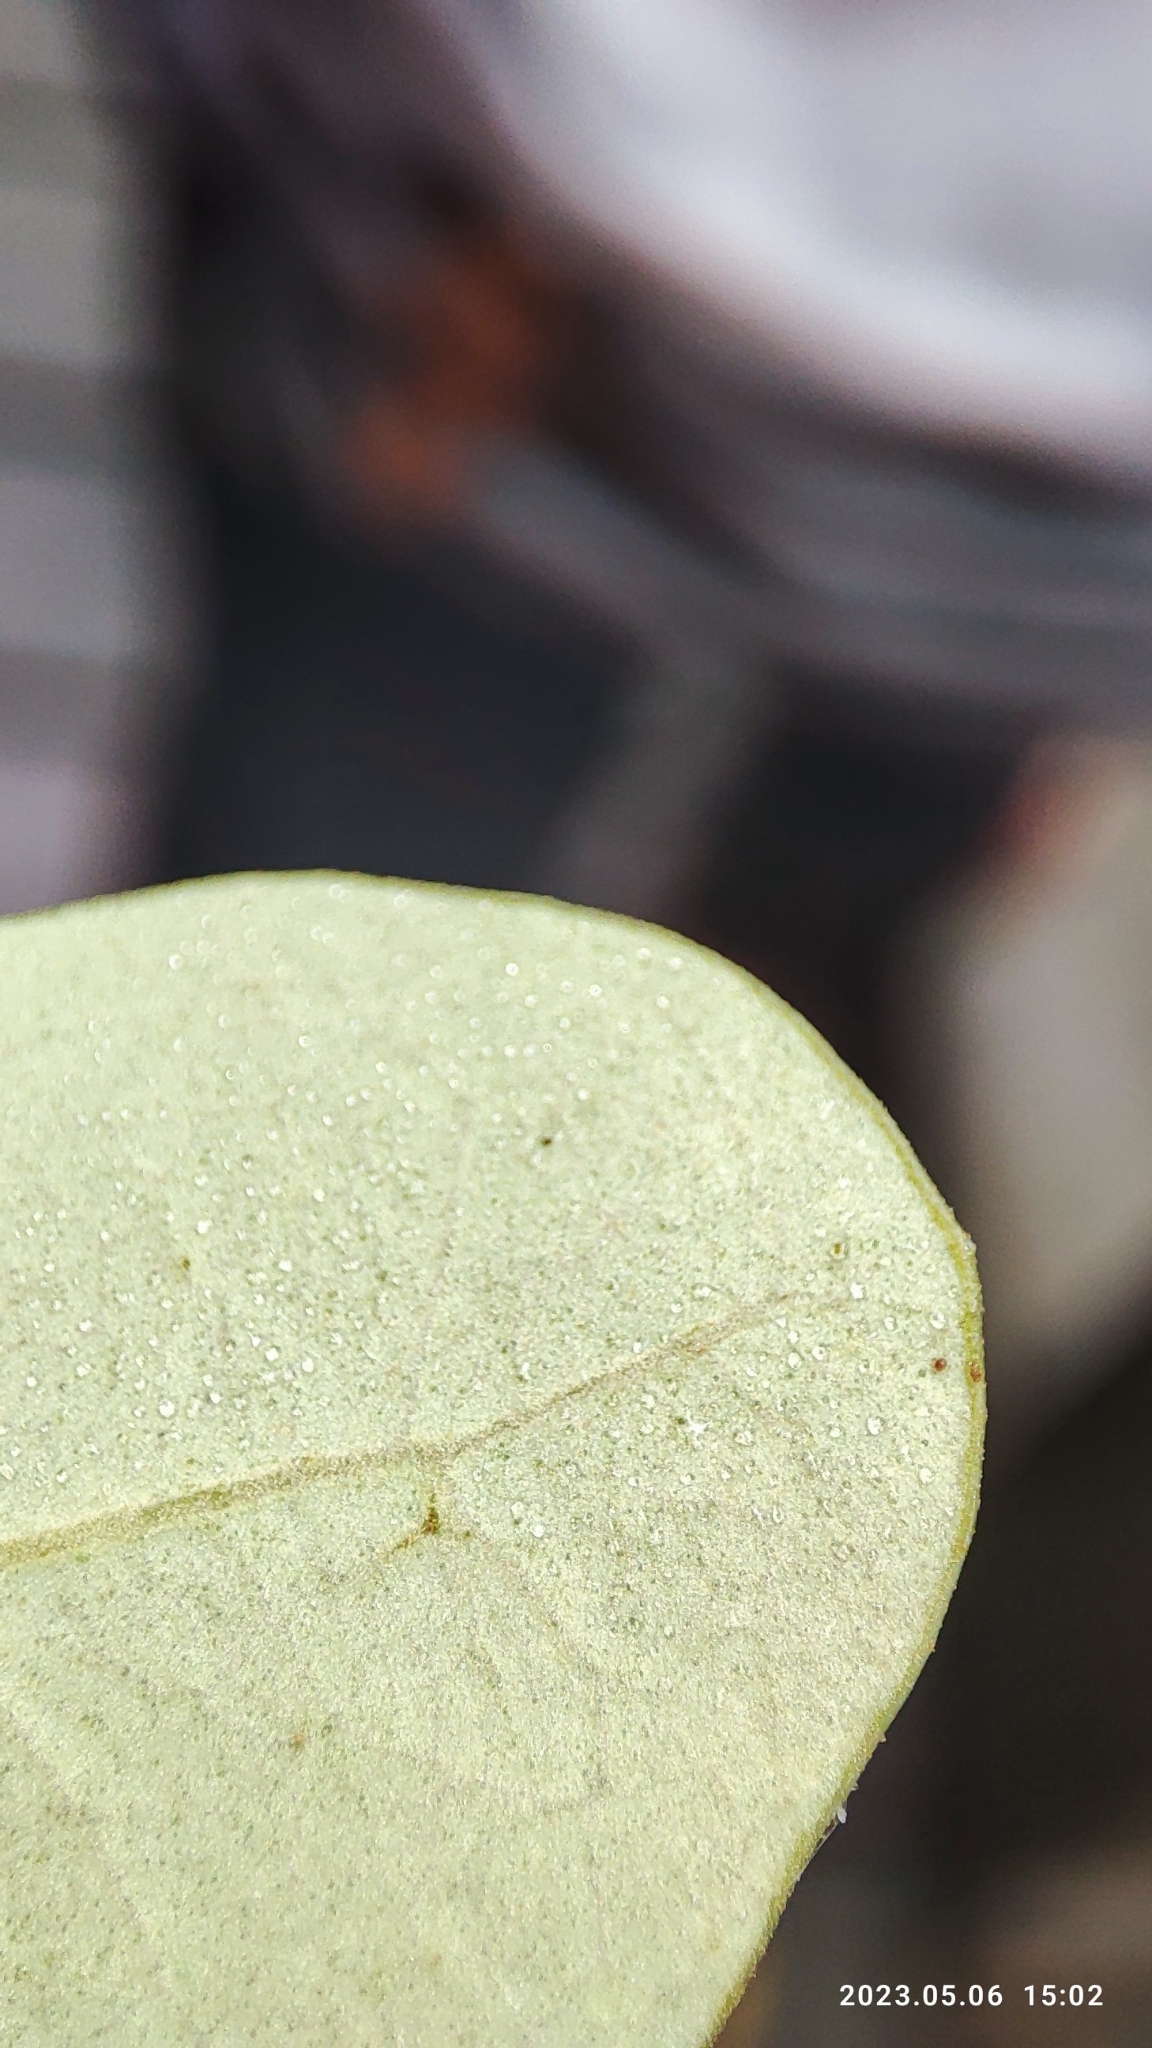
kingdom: Plantae
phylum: Tracheophyta
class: Magnoliopsida
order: Lamiales
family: Acanthaceae
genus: Avicennia
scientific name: Avicennia marina
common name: Gray mangrove
